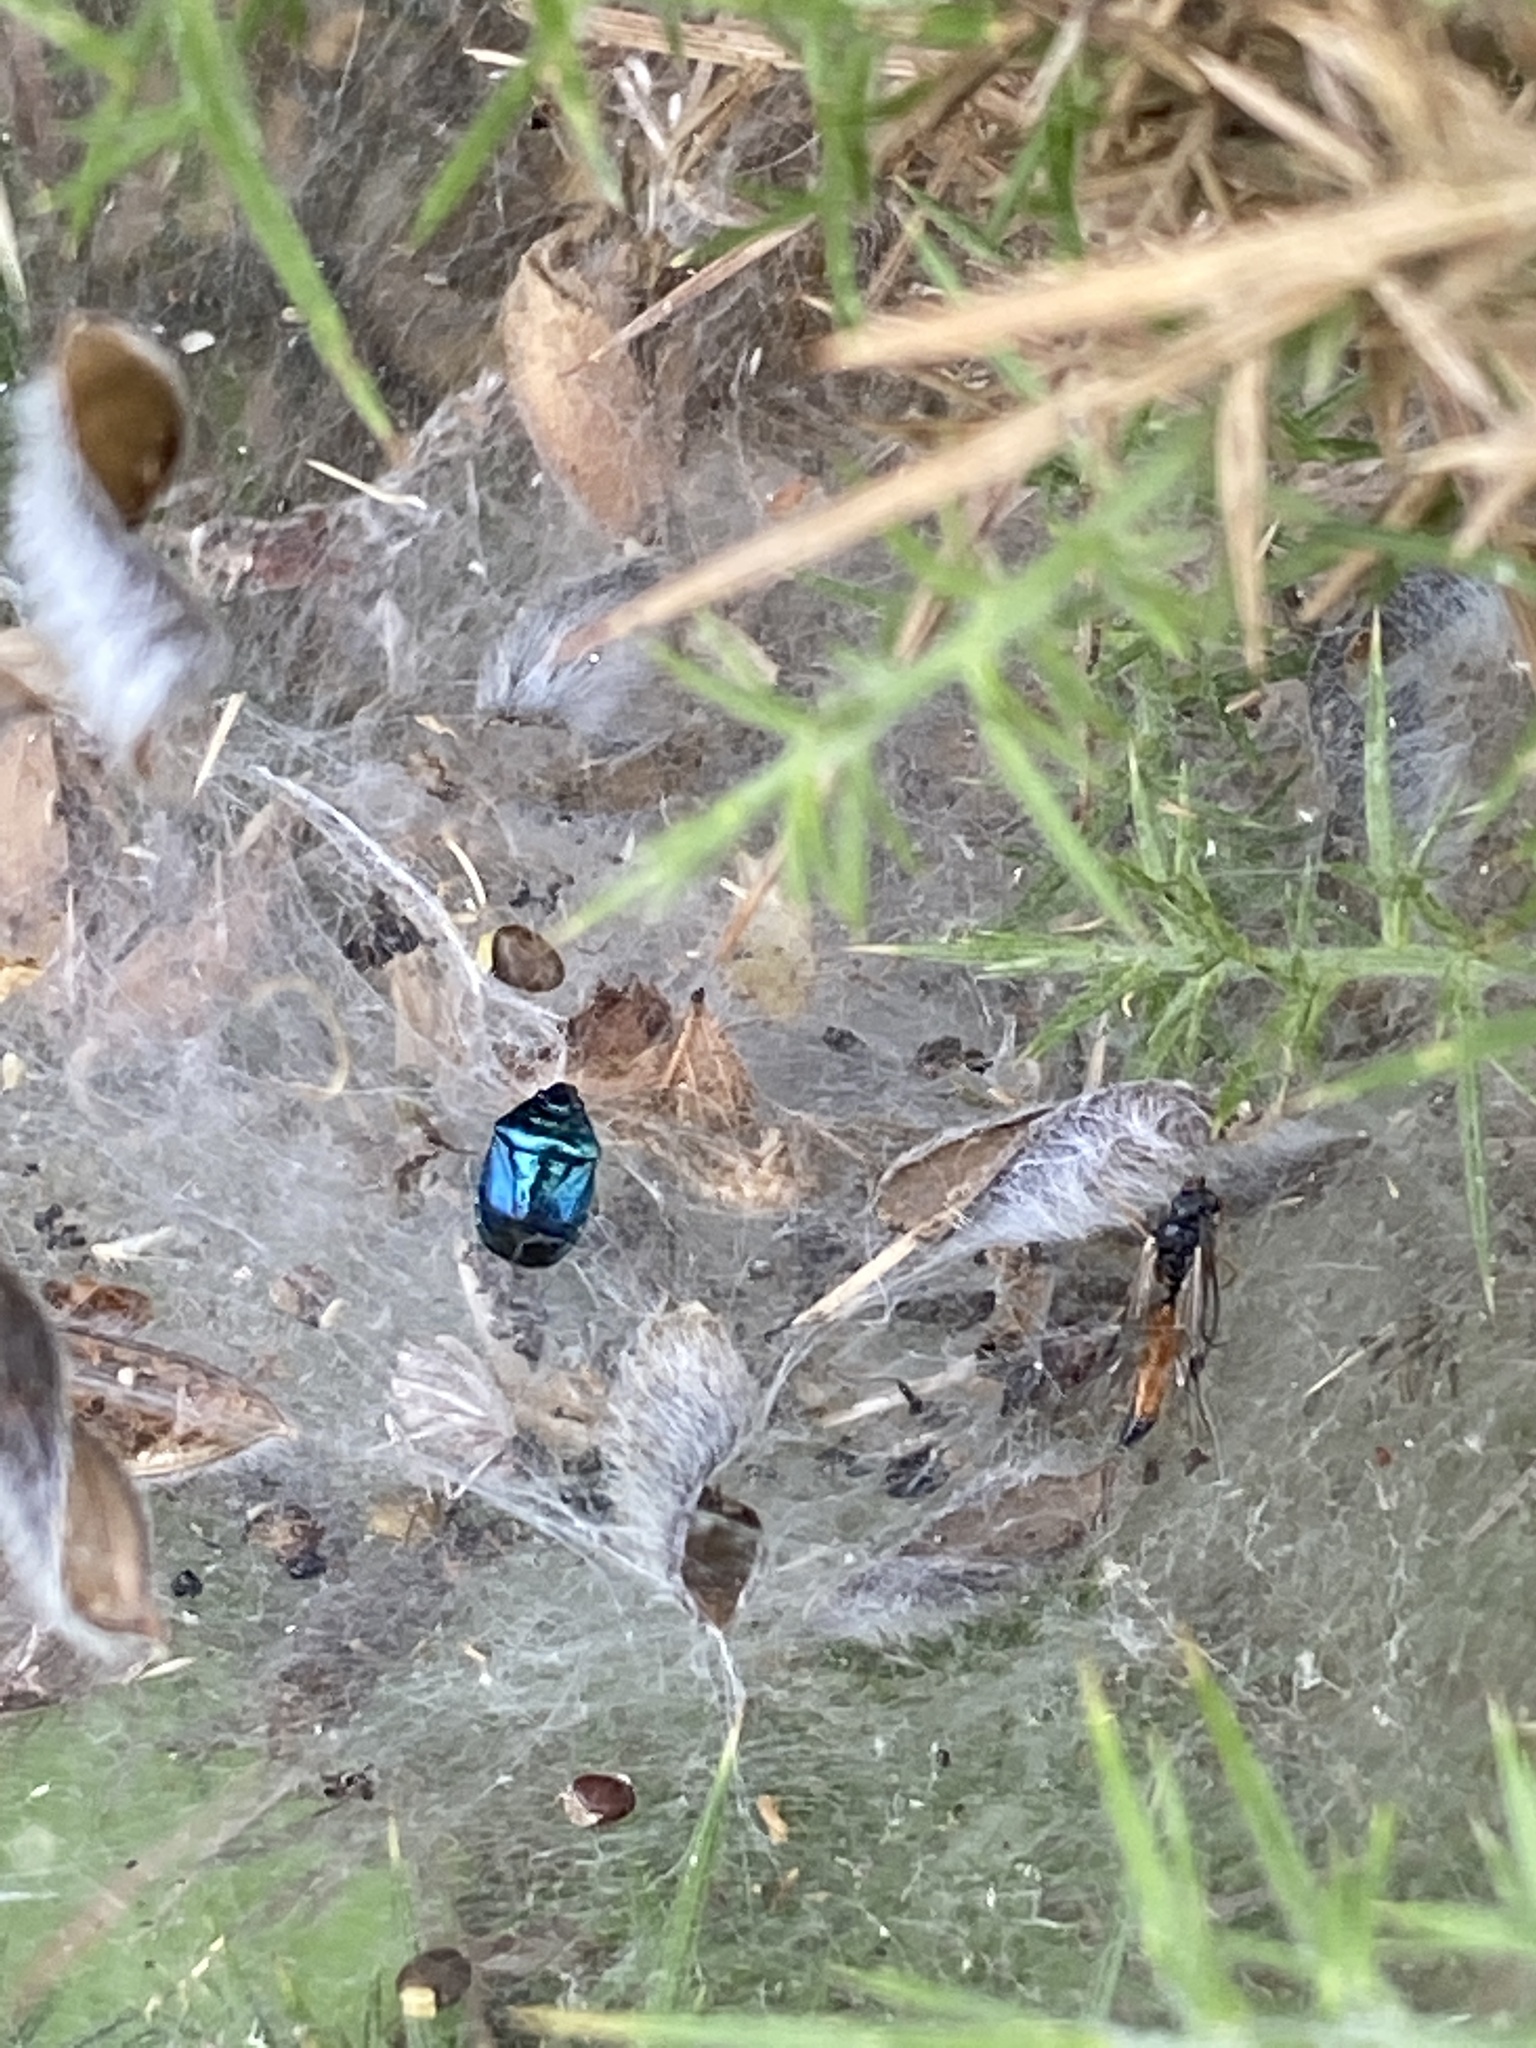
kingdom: Animalia
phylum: Arthropoda
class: Insecta
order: Hemiptera
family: Pentatomidae
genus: Zicrona
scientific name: Zicrona caerulea
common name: Blue shieldbug
